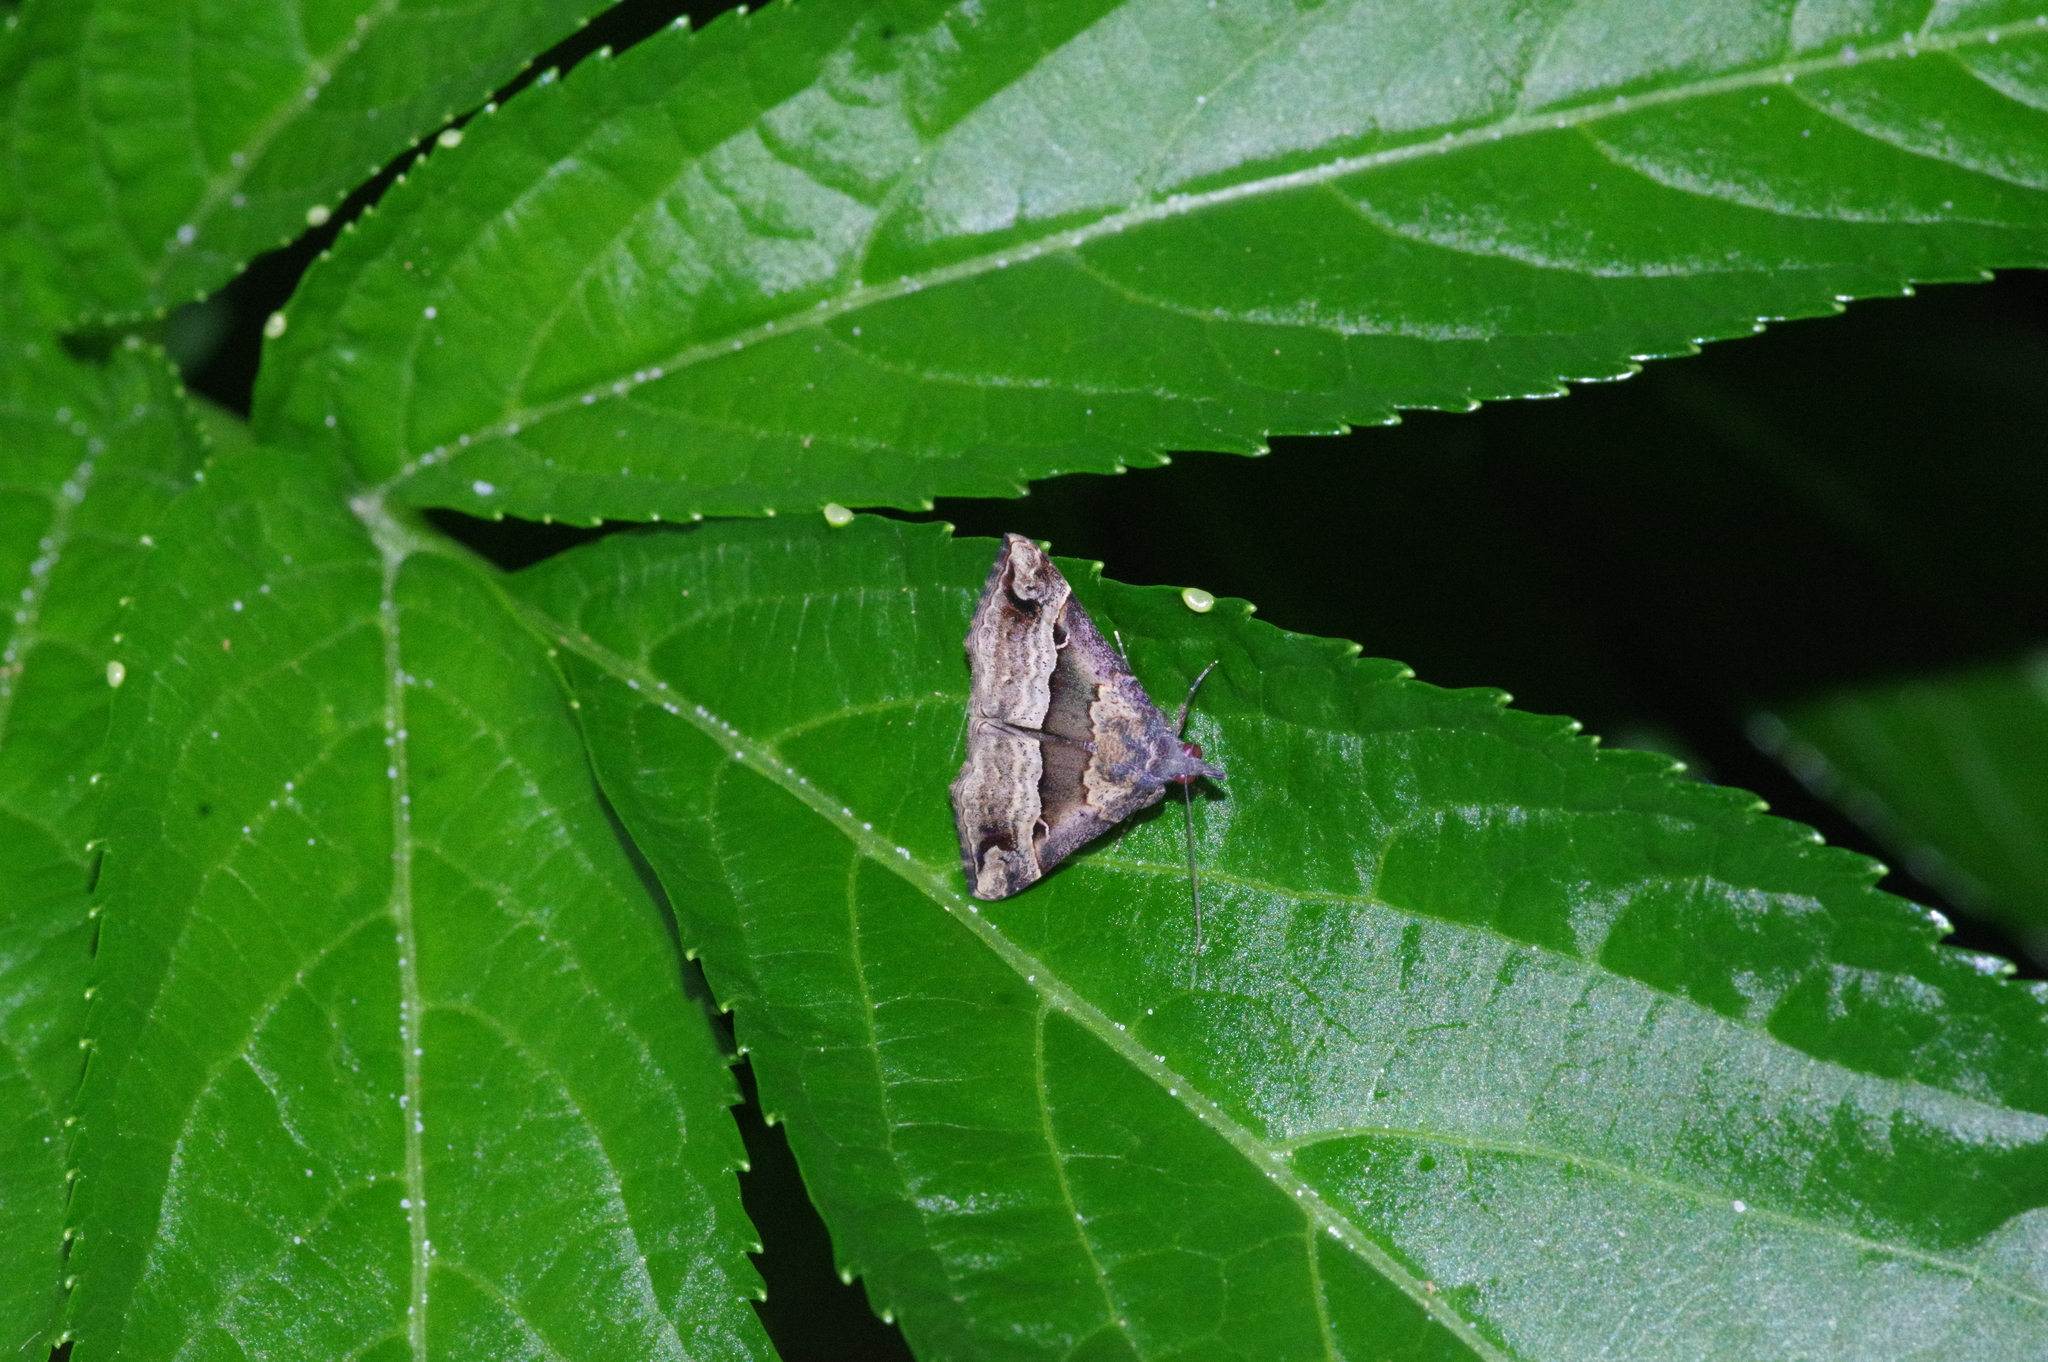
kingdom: Animalia
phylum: Arthropoda
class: Insecta
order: Lepidoptera
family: Erebidae
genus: Hypena
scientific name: Hypena gonospilalis
